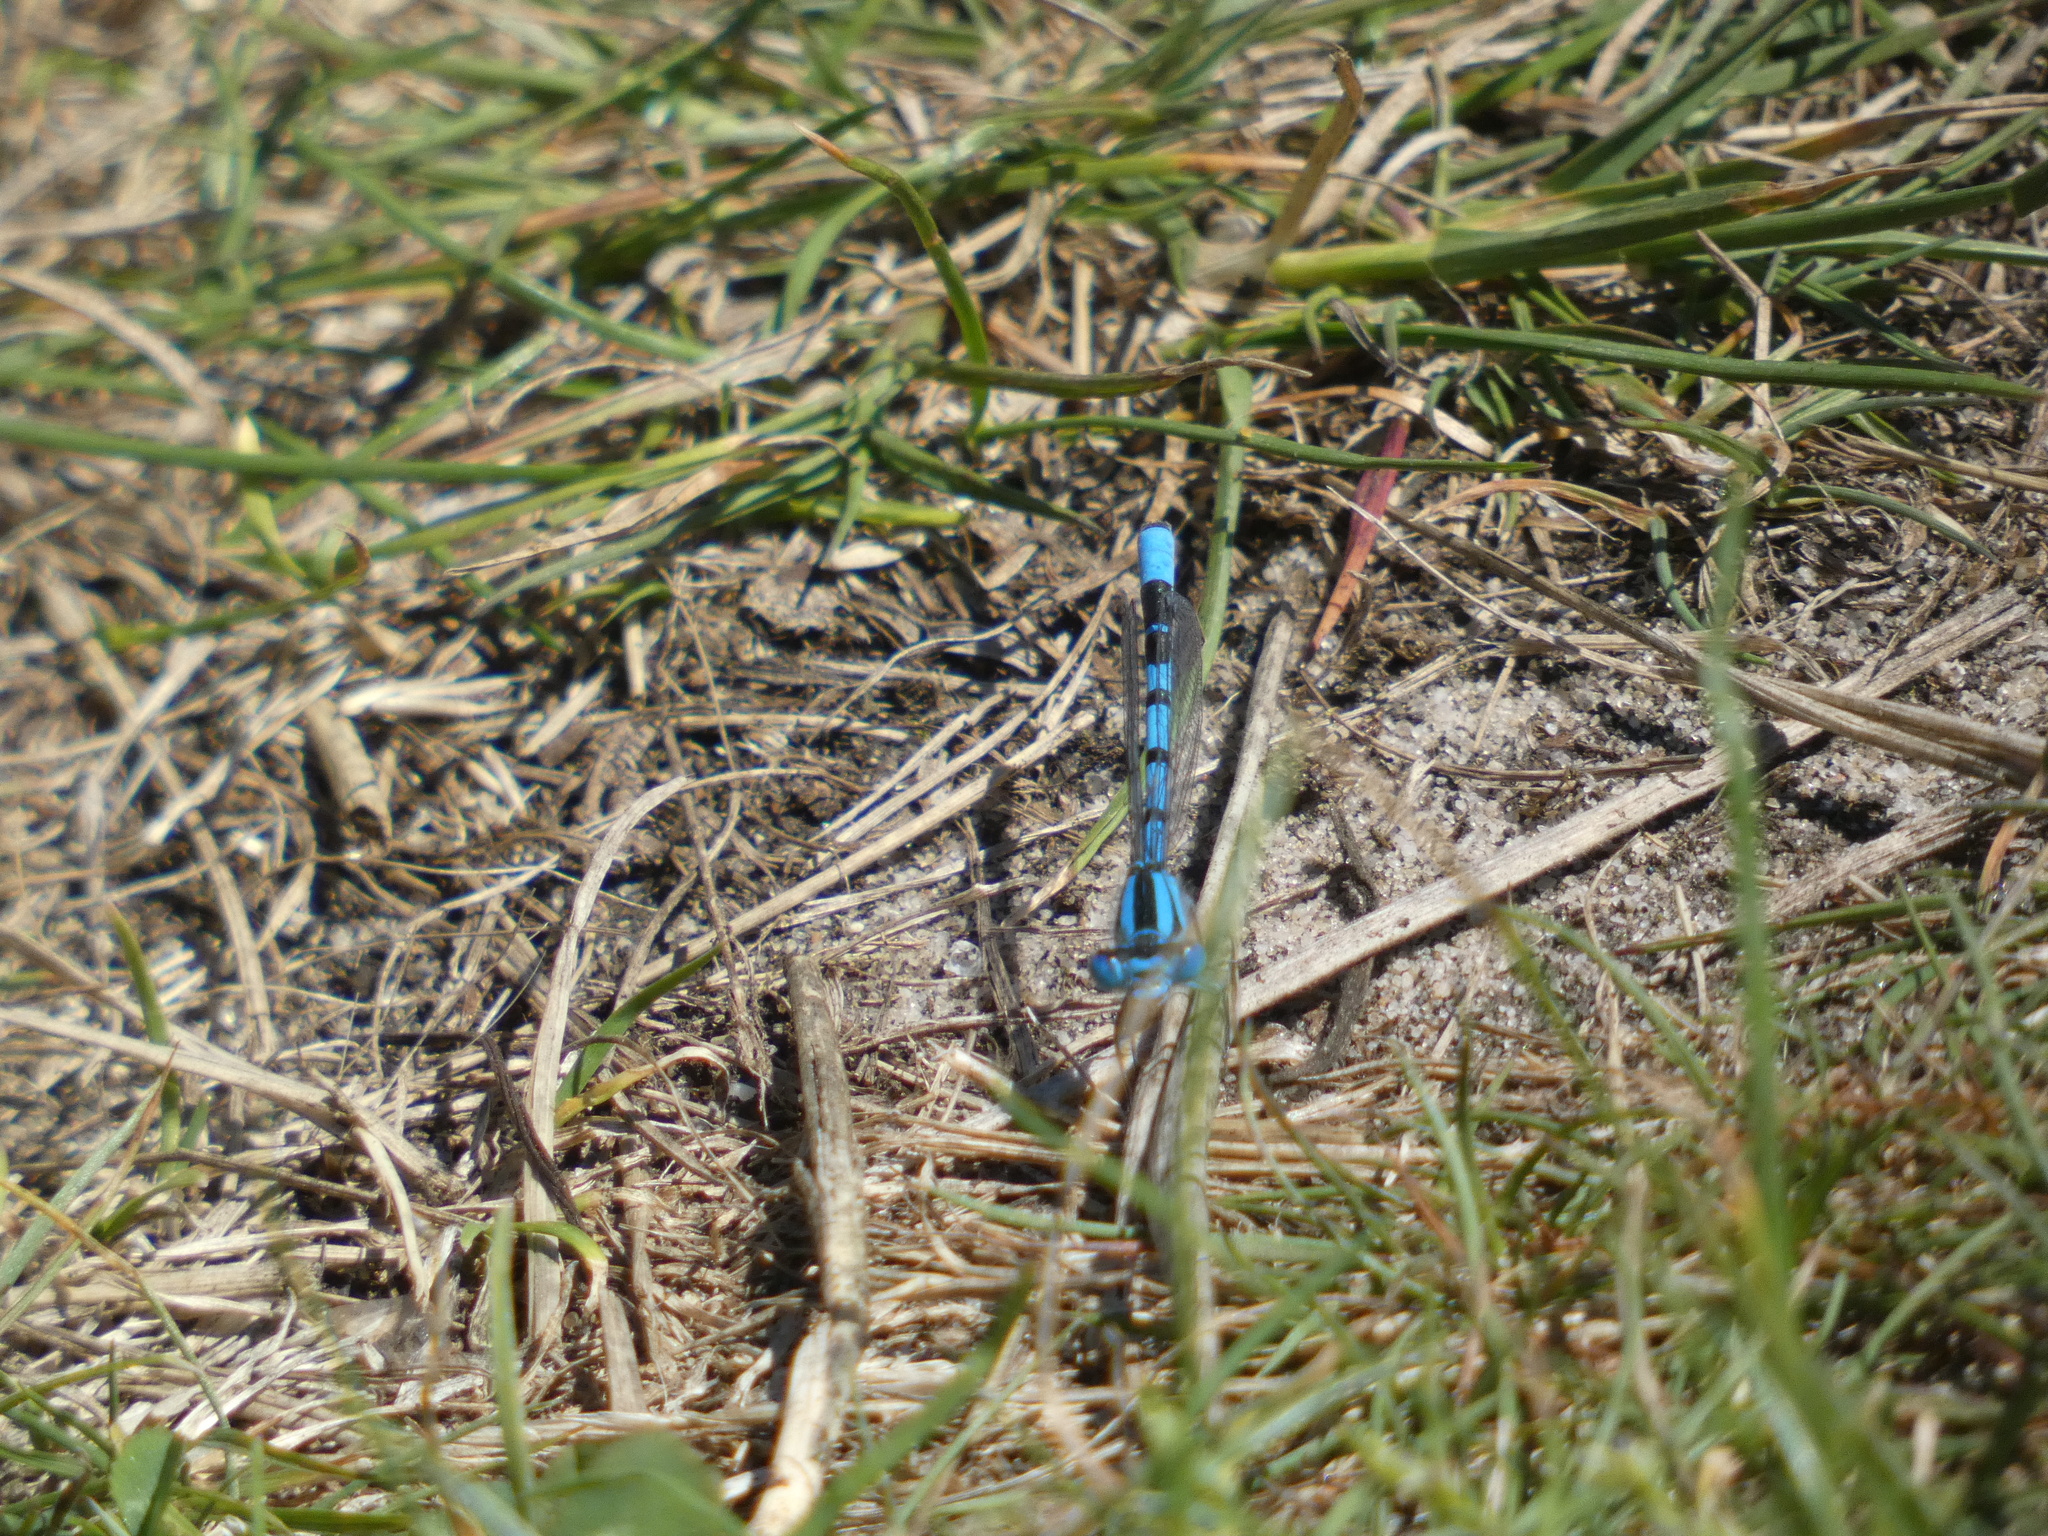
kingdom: Animalia
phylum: Arthropoda
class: Insecta
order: Odonata
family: Coenagrionidae
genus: Enallagma
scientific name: Enallagma cyathigerum
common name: Common blue damselfly
